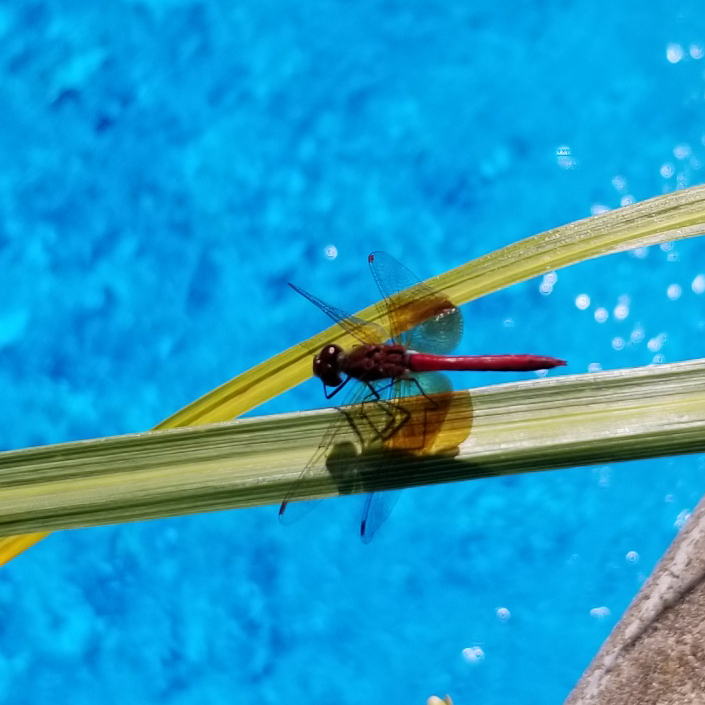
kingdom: Animalia
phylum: Arthropoda
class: Insecta
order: Odonata
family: Libellulidae
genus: Sympetrum
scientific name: Sympetrum semicinctum
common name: Band-winged meadowhawk
